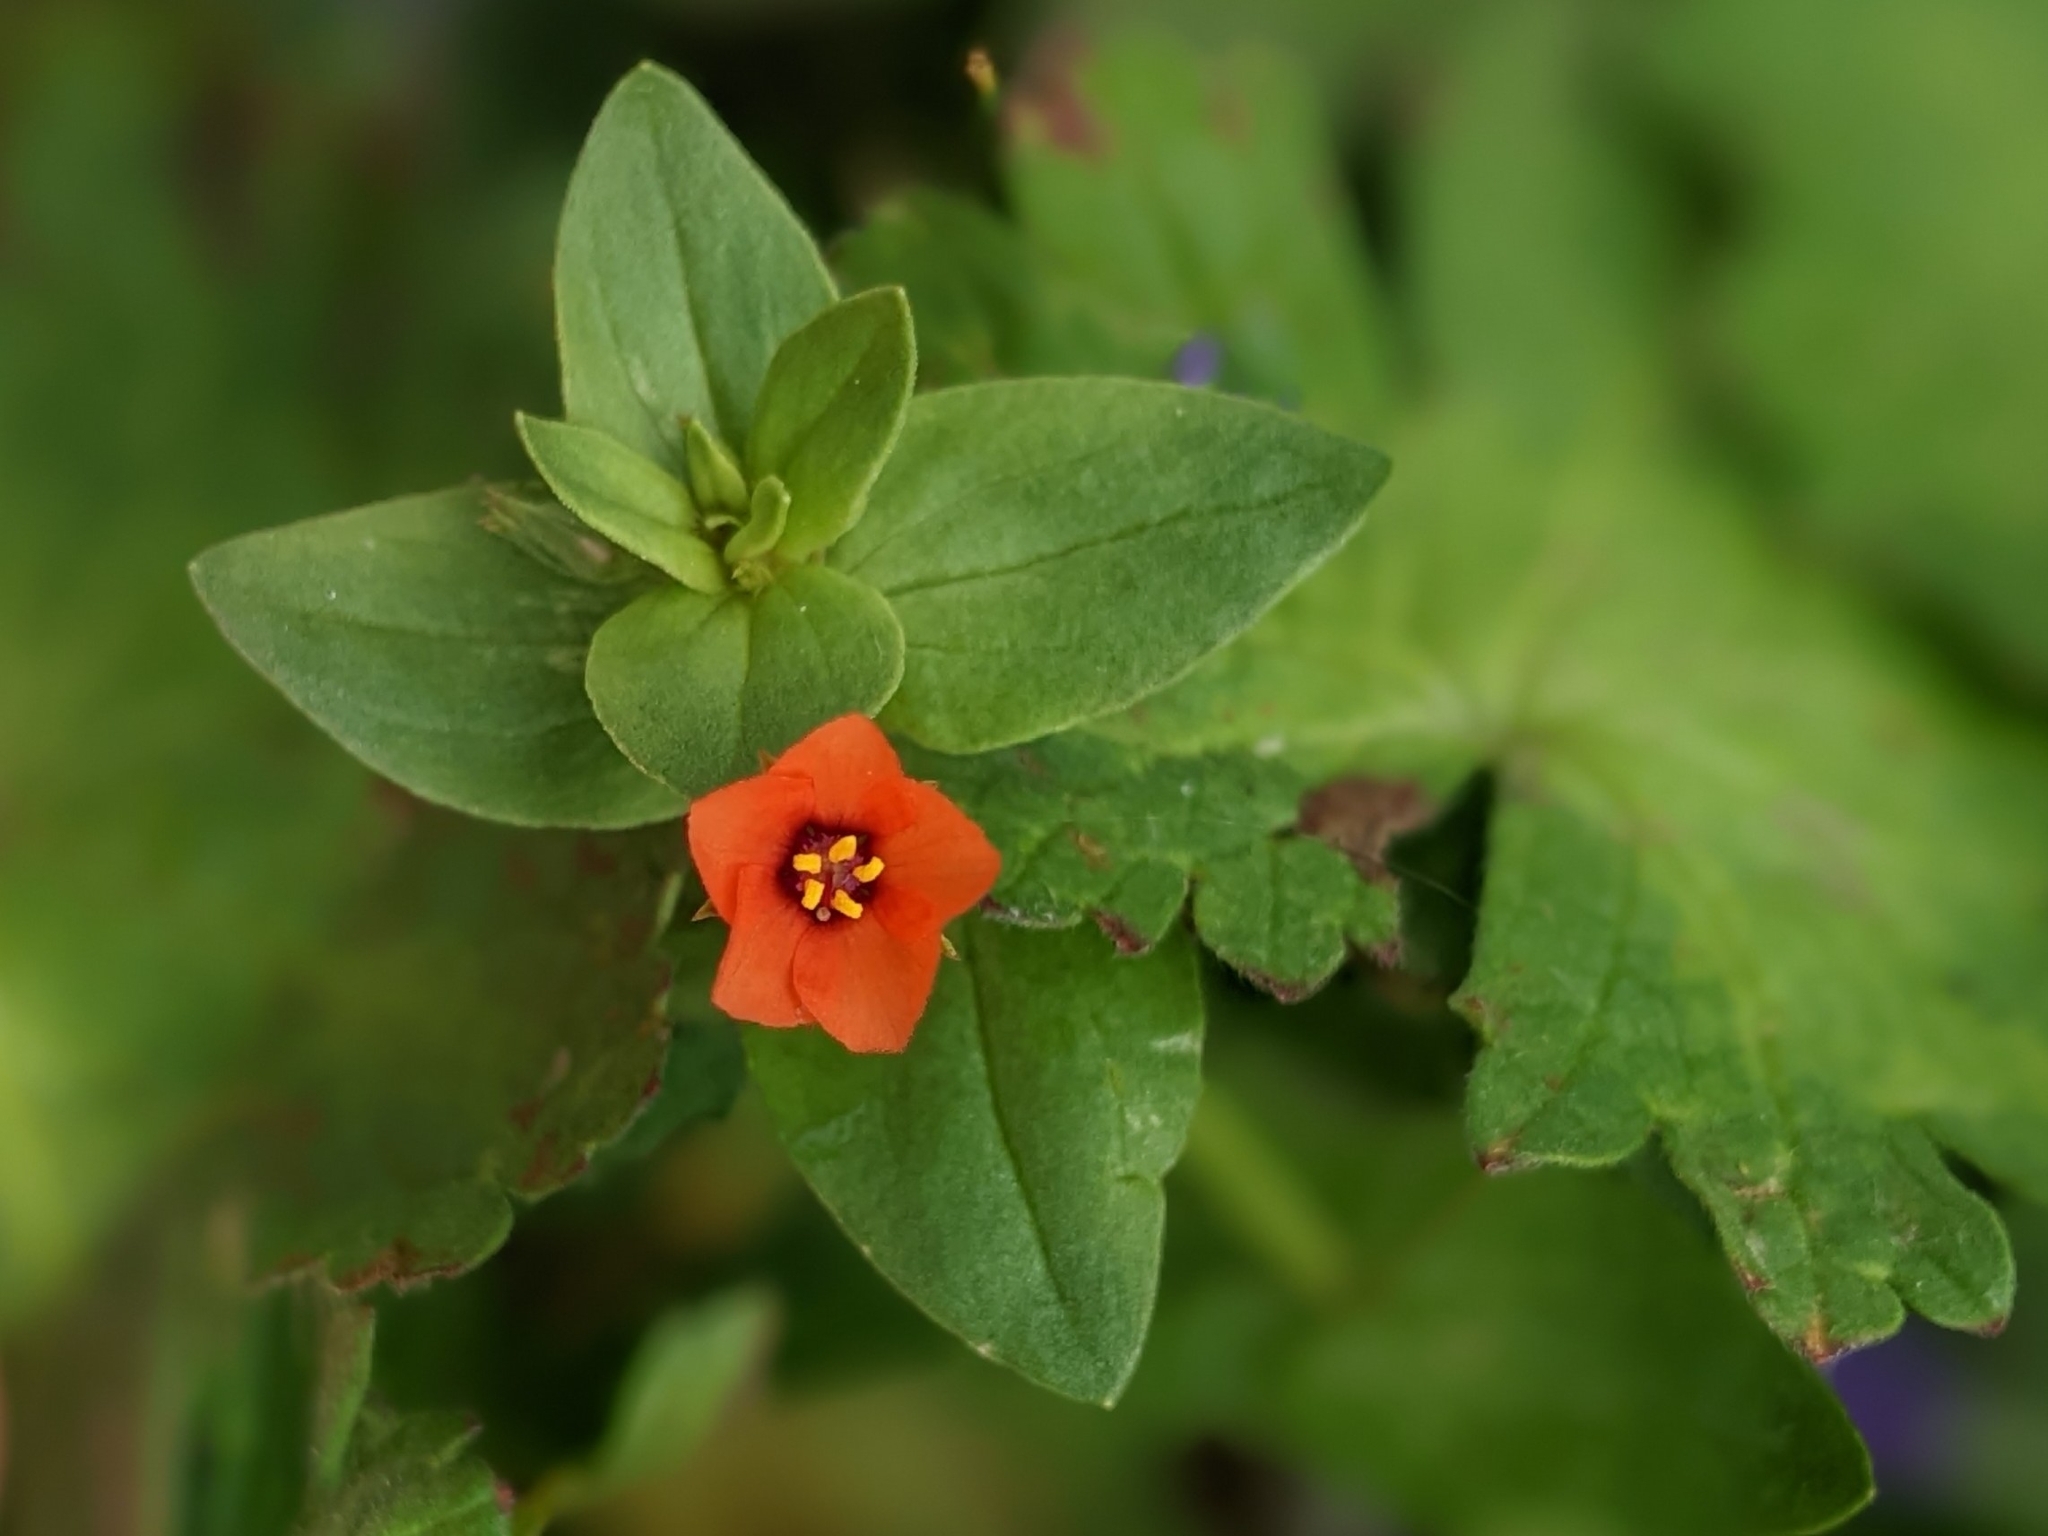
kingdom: Plantae
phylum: Tracheophyta
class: Magnoliopsida
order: Ericales
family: Primulaceae
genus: Lysimachia
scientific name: Lysimachia arvensis
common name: Scarlet pimpernel
